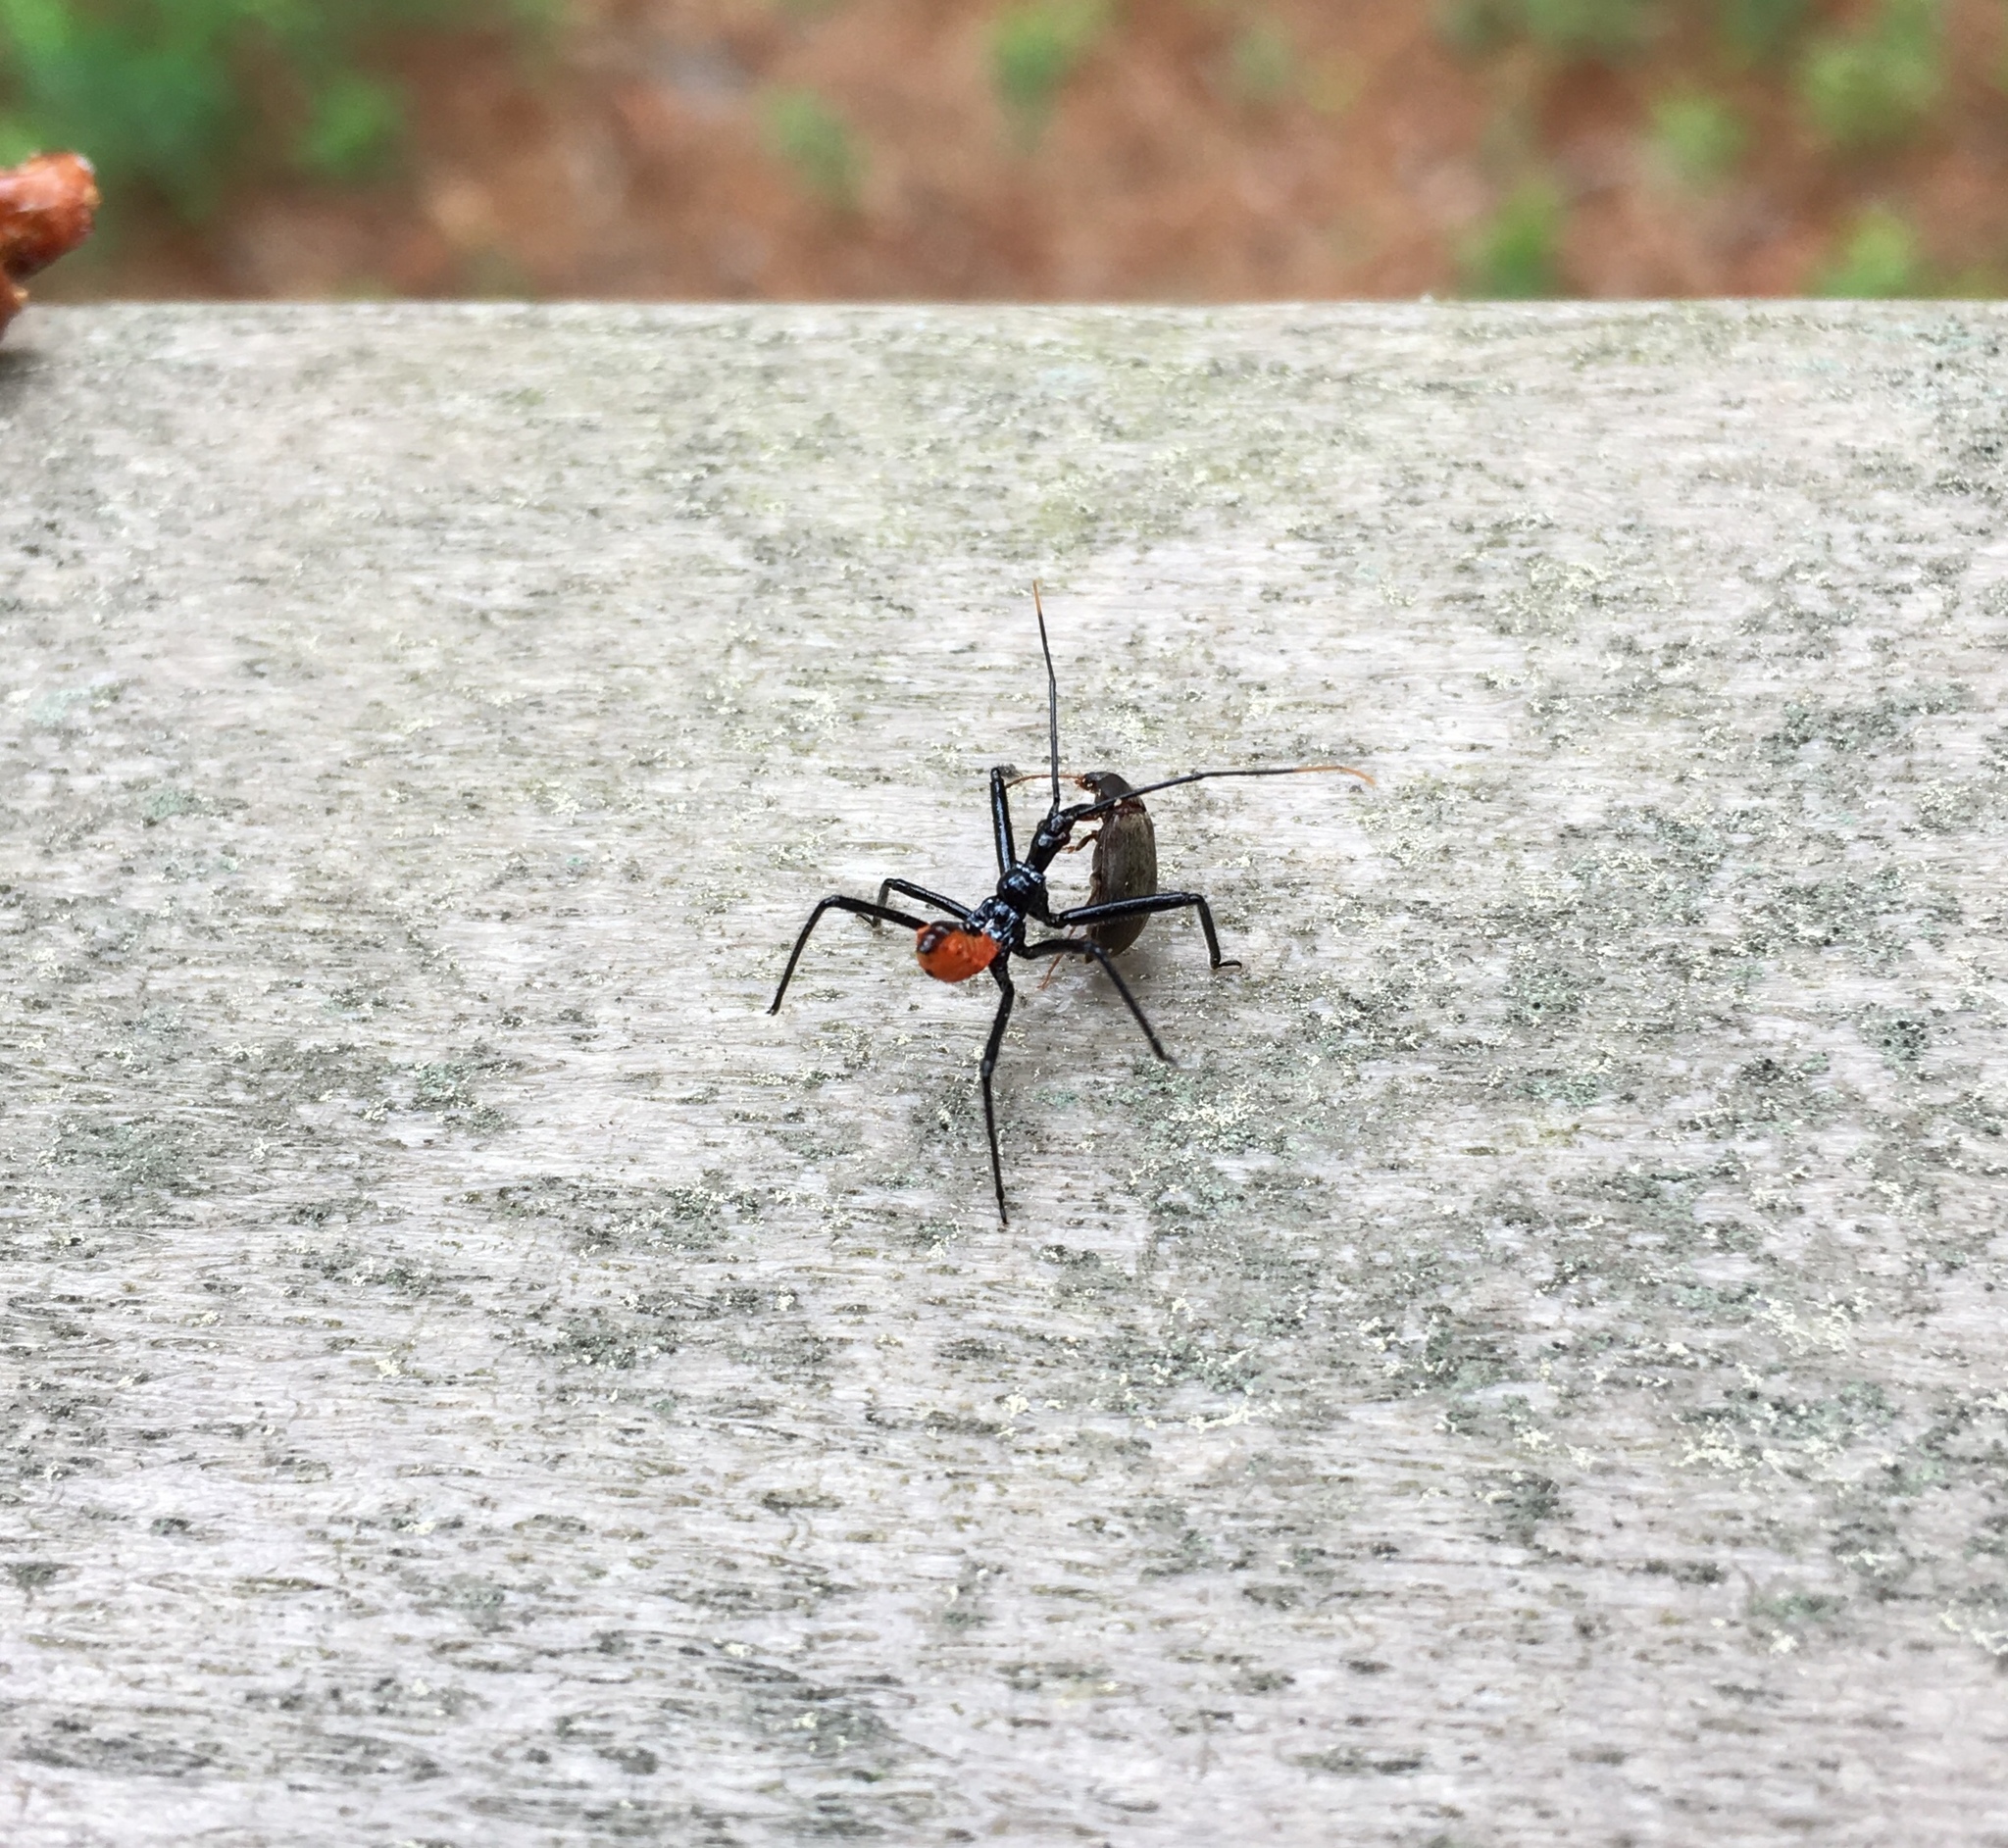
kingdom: Animalia
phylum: Arthropoda
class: Insecta
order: Hemiptera
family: Reduviidae
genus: Arilus
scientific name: Arilus cristatus
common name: North american wheel bug
